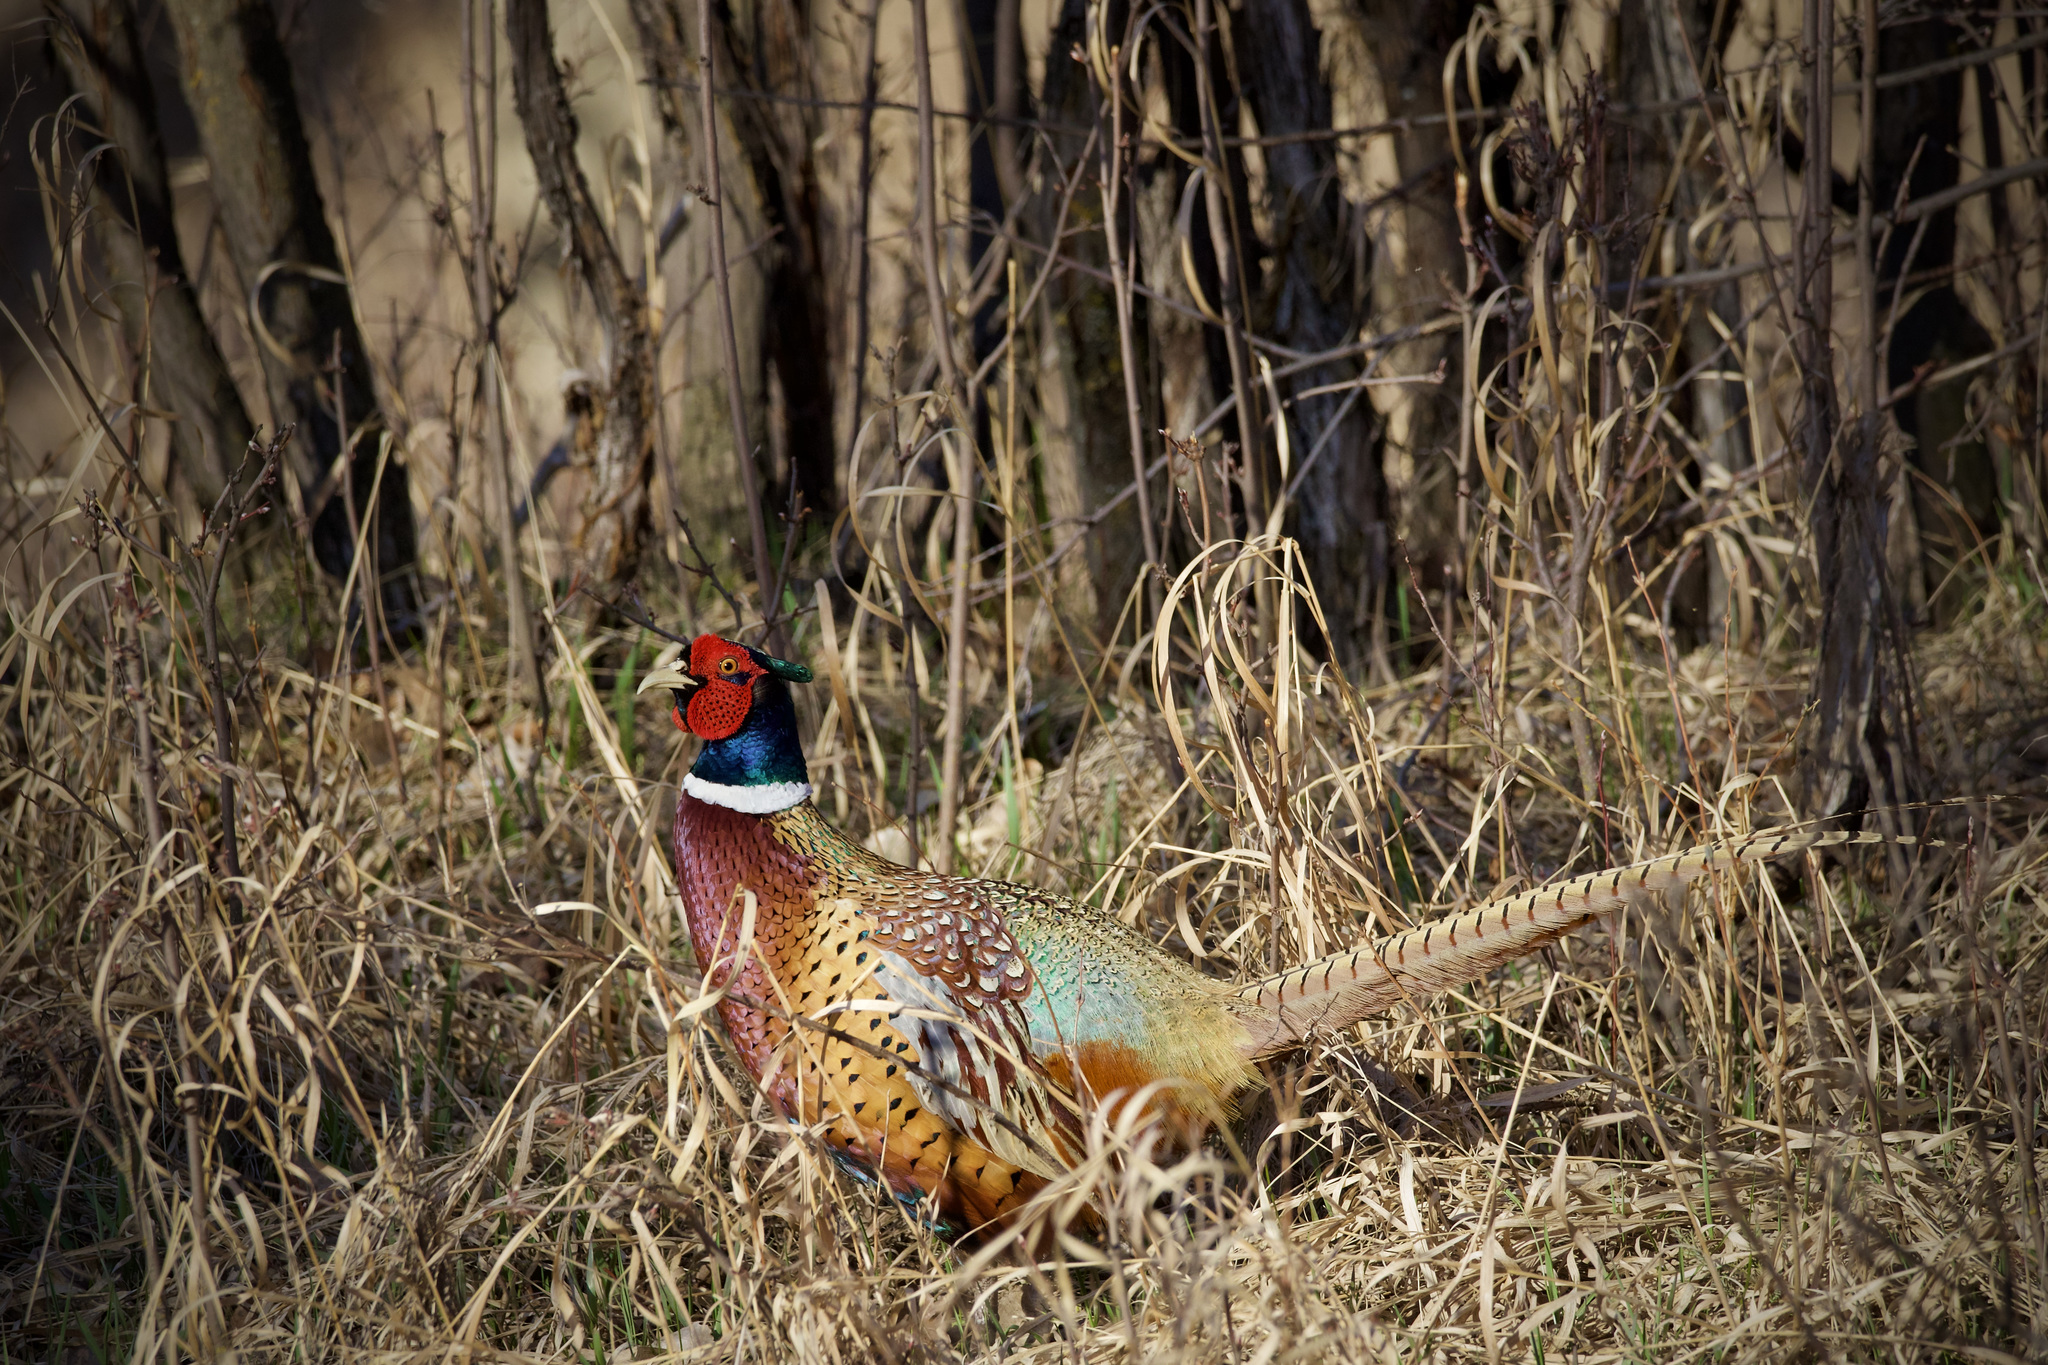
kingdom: Animalia
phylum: Chordata
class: Aves
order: Galliformes
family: Phasianidae
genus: Phasianus
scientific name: Phasianus colchicus
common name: Common pheasant
